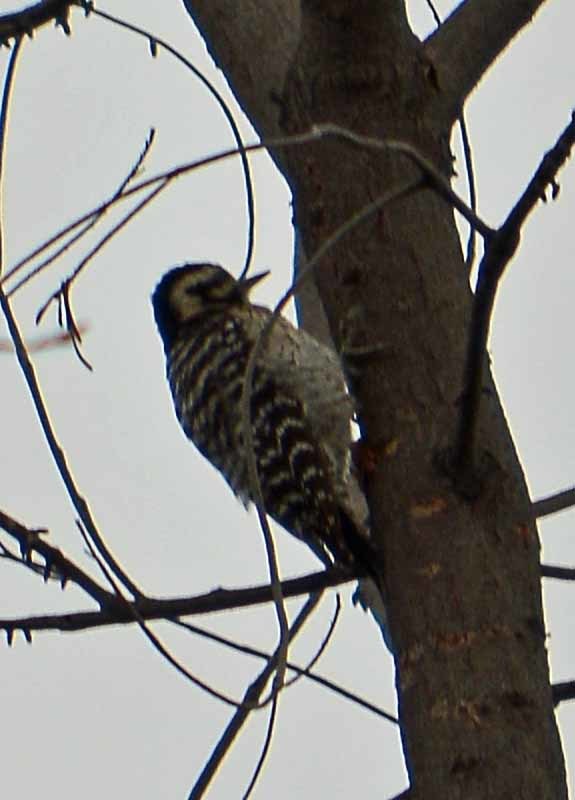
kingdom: Animalia
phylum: Chordata
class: Aves
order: Piciformes
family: Picidae
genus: Dryobates
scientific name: Dryobates scalaris
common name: Ladder-backed woodpecker
